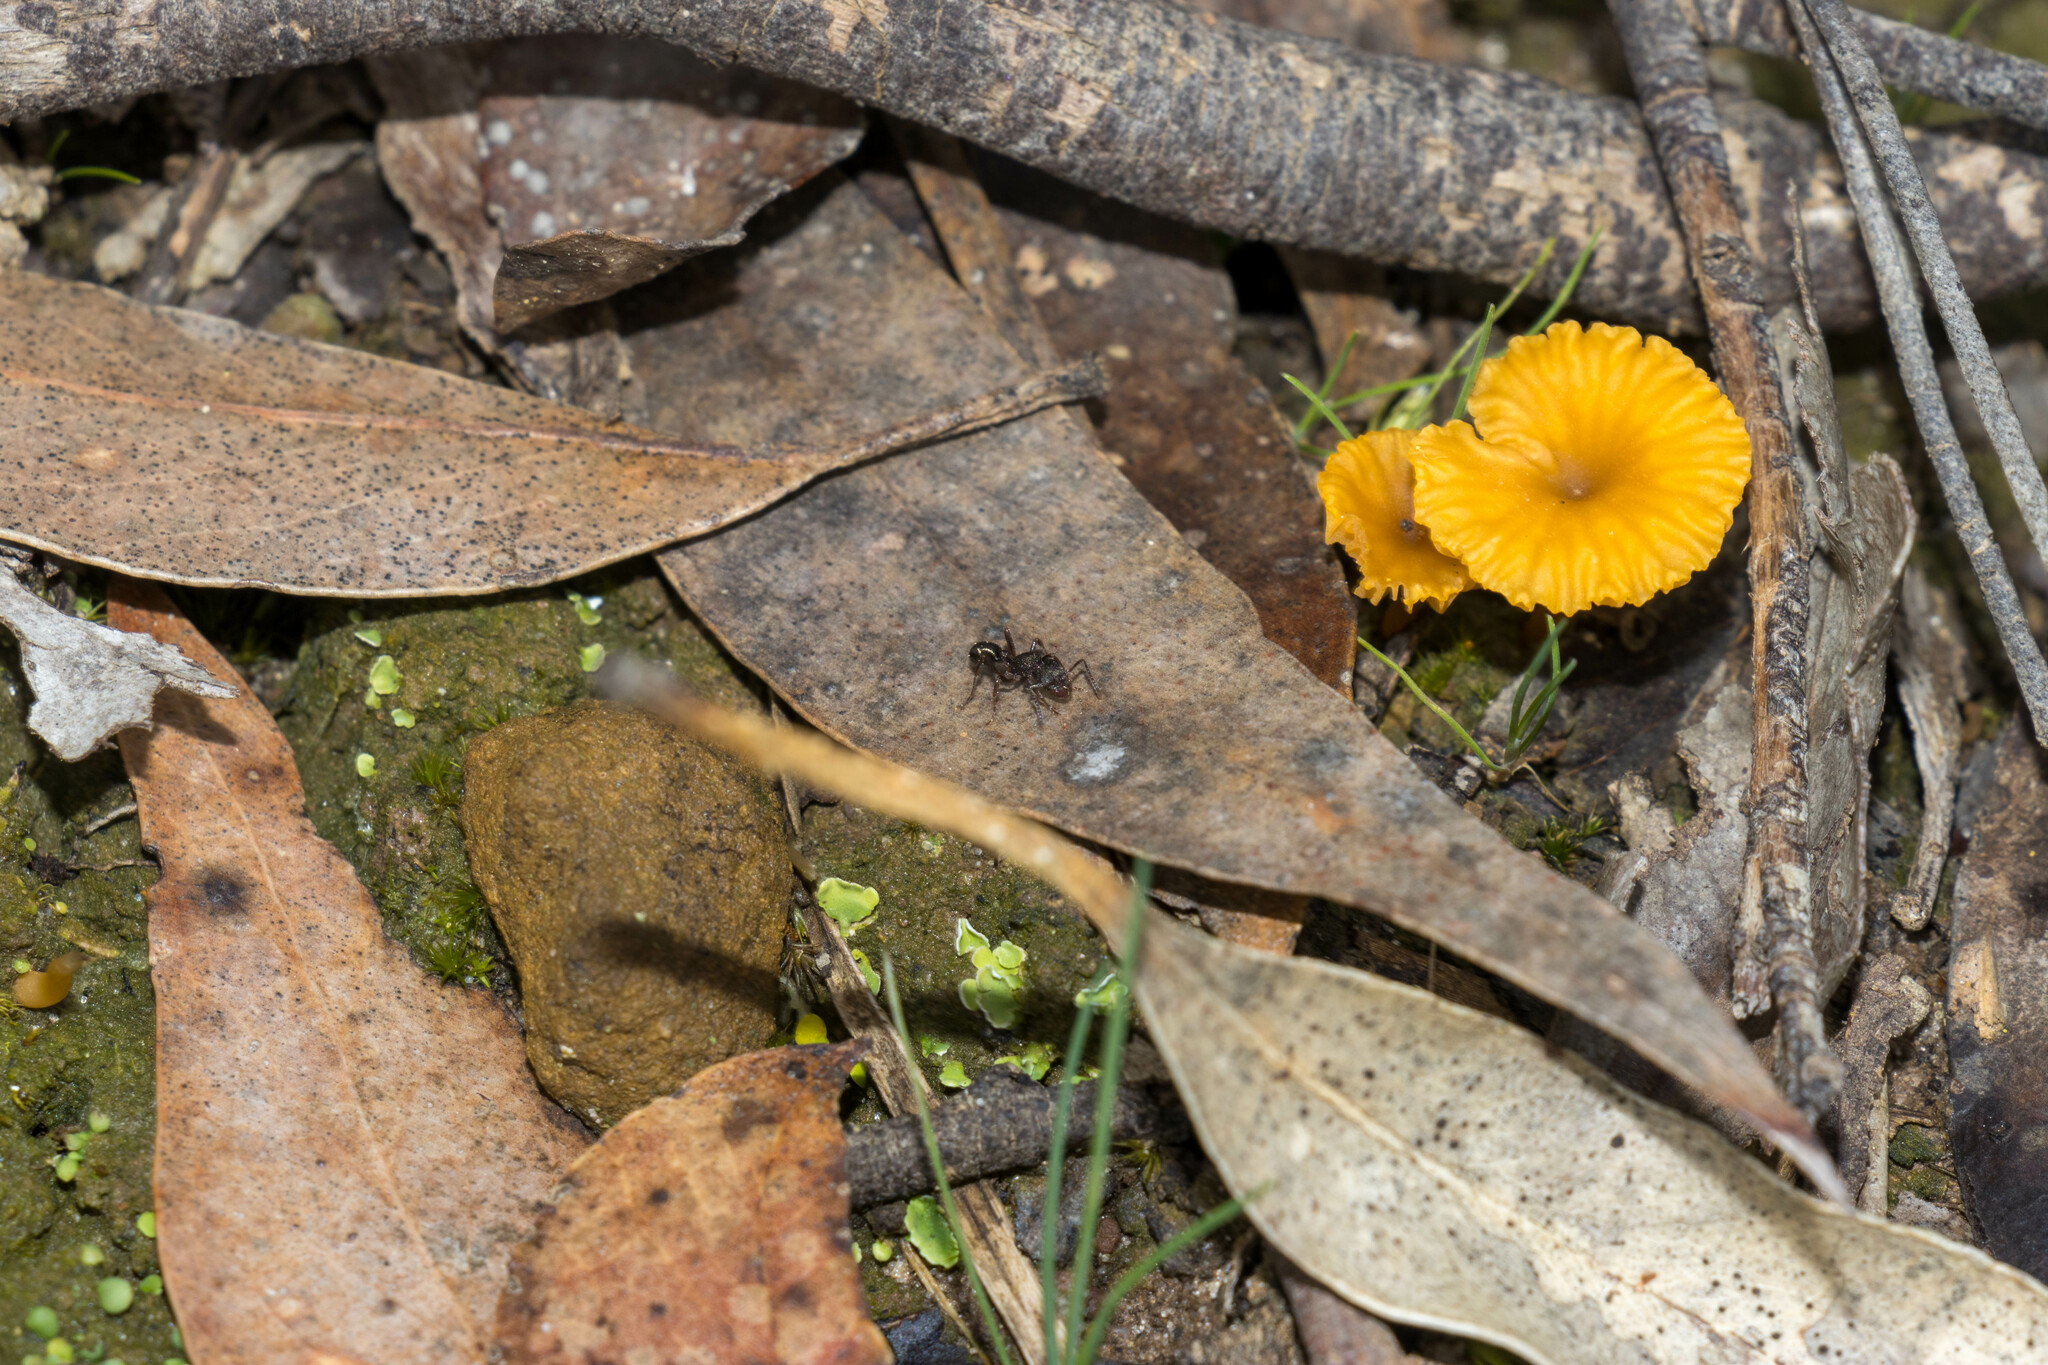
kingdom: Fungi
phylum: Basidiomycota
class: Agaricomycetes
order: Agaricales
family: Hygrophoraceae
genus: Lichenomphalia
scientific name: Lichenomphalia chromacea
